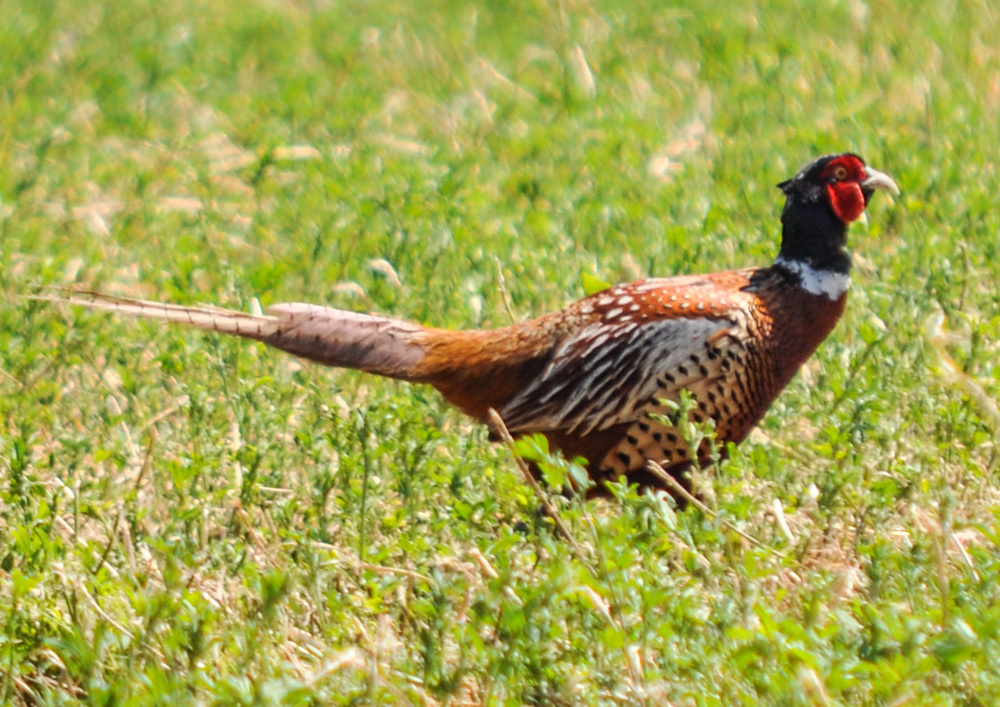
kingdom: Animalia
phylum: Chordata
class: Aves
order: Galliformes
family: Phasianidae
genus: Phasianus
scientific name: Phasianus colchicus
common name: Common pheasant
